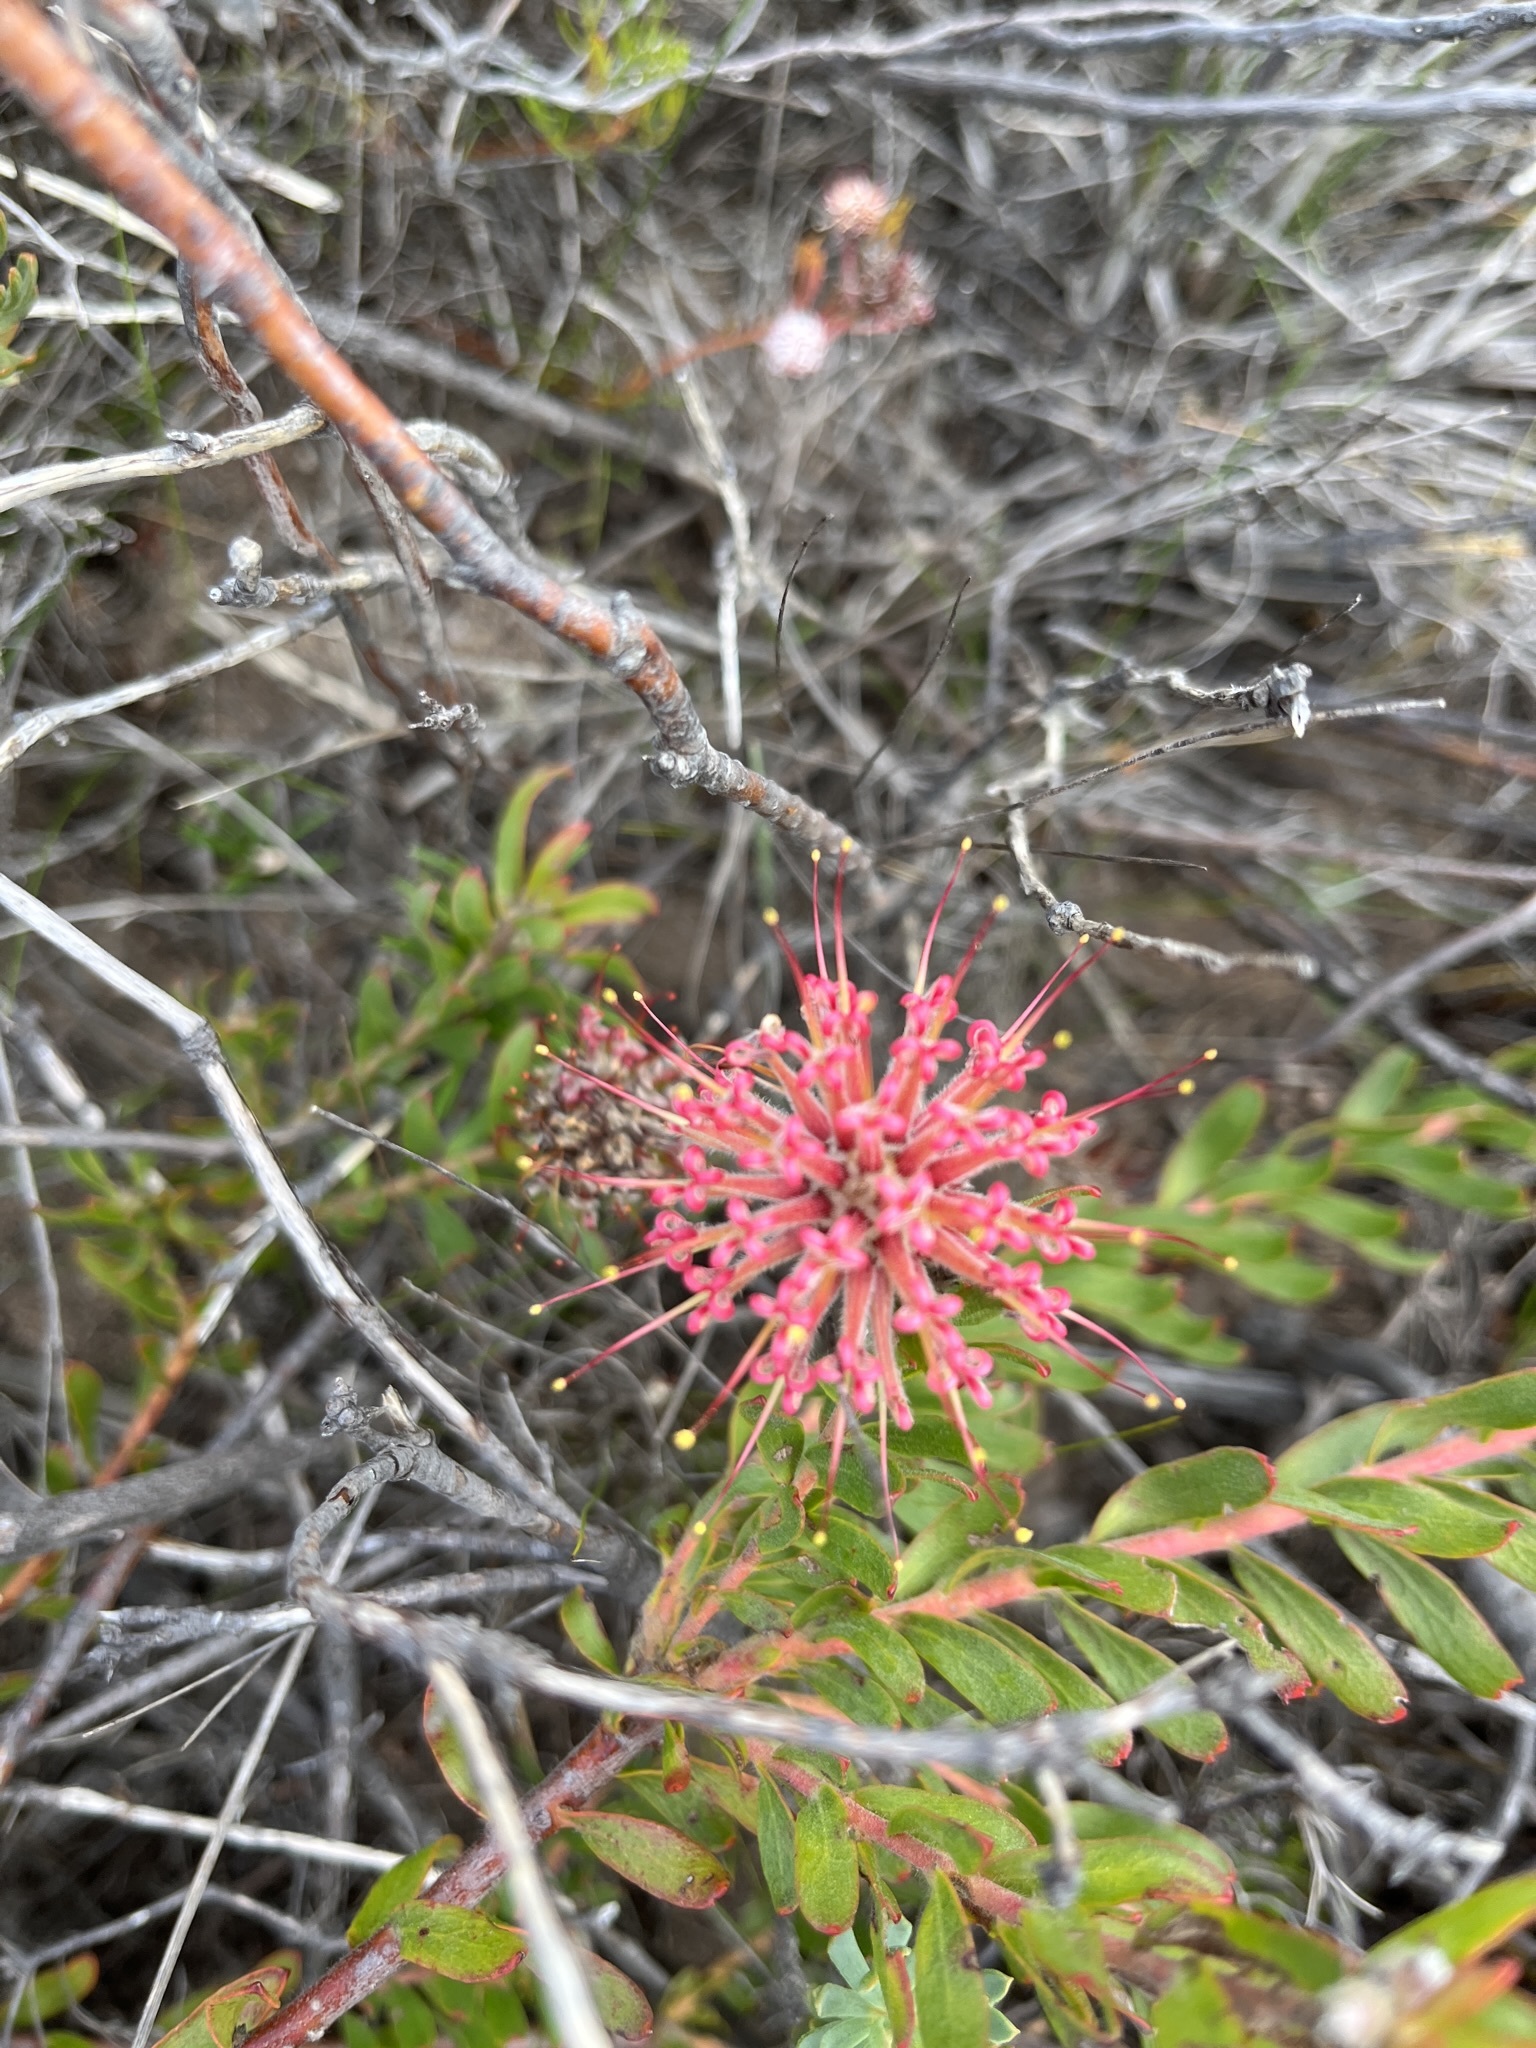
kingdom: Plantae
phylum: Tracheophyta
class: Magnoliopsida
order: Proteales
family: Proteaceae
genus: Leucospermum
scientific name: Leucospermum heterophyllum
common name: Trident pincushion
